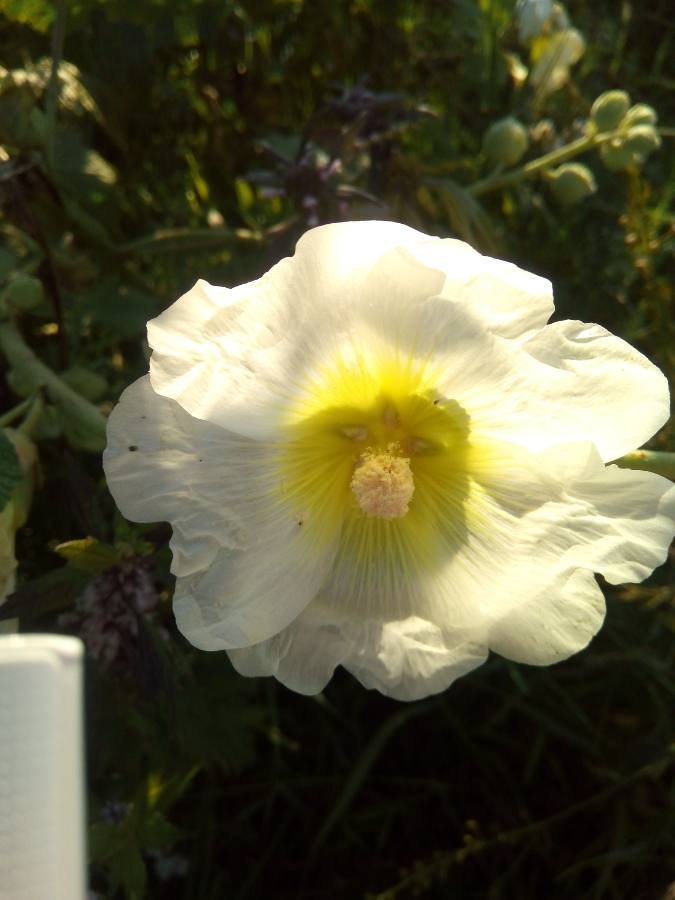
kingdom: Plantae
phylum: Tracheophyta
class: Magnoliopsida
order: Malvales
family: Malvaceae
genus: Alcea
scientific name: Alcea rosea
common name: Hollyhock
